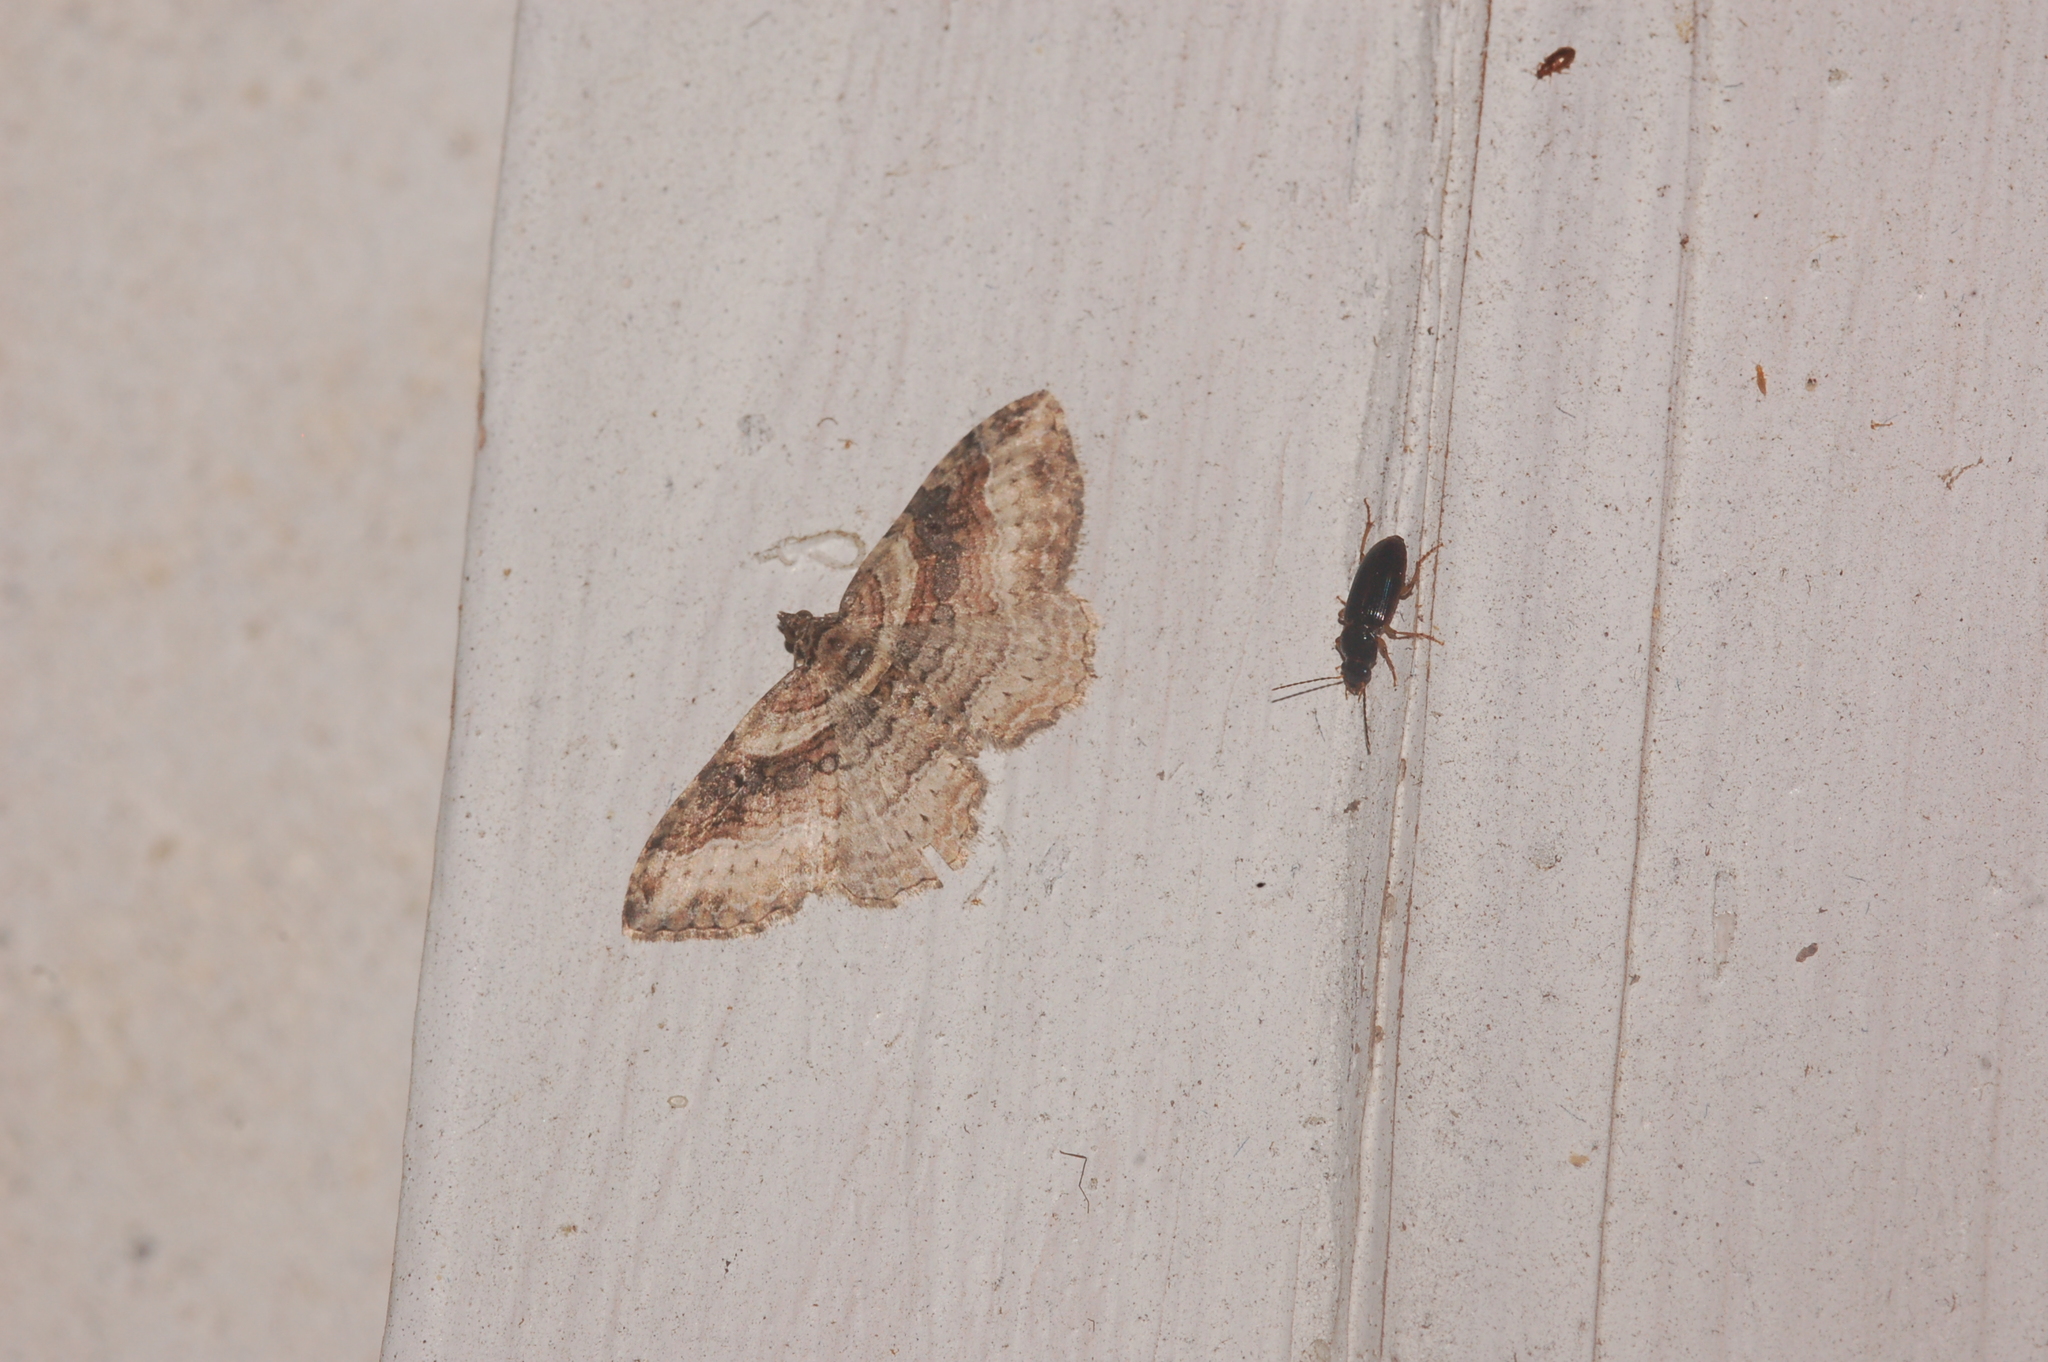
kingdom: Animalia
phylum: Arthropoda
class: Insecta
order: Lepidoptera
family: Geometridae
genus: Costaconvexa
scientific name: Costaconvexa centrostrigaria
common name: Bent-line carpet
